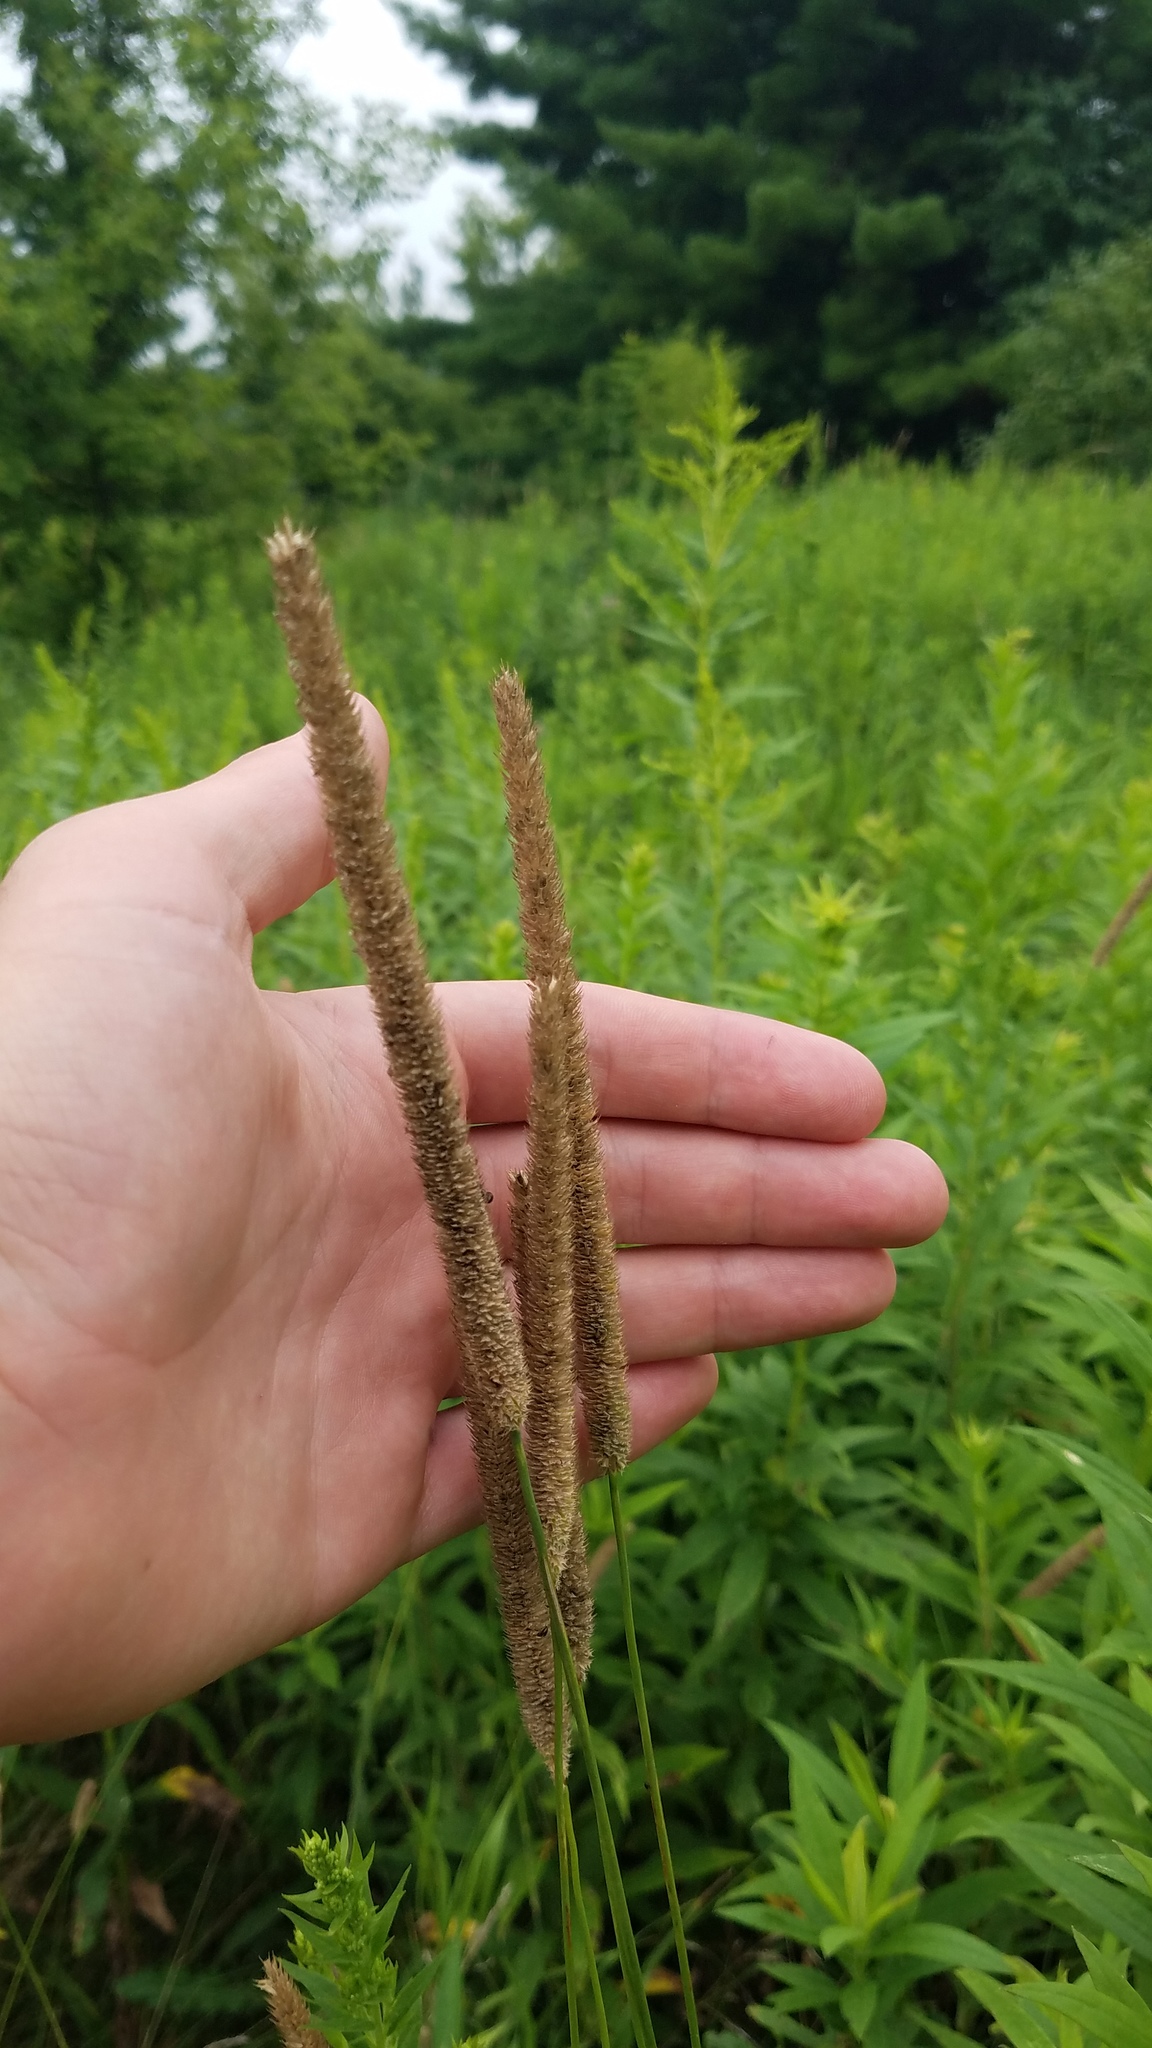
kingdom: Plantae
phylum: Tracheophyta
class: Liliopsida
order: Poales
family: Poaceae
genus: Phleum
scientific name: Phleum pratense
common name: Timothy grass
